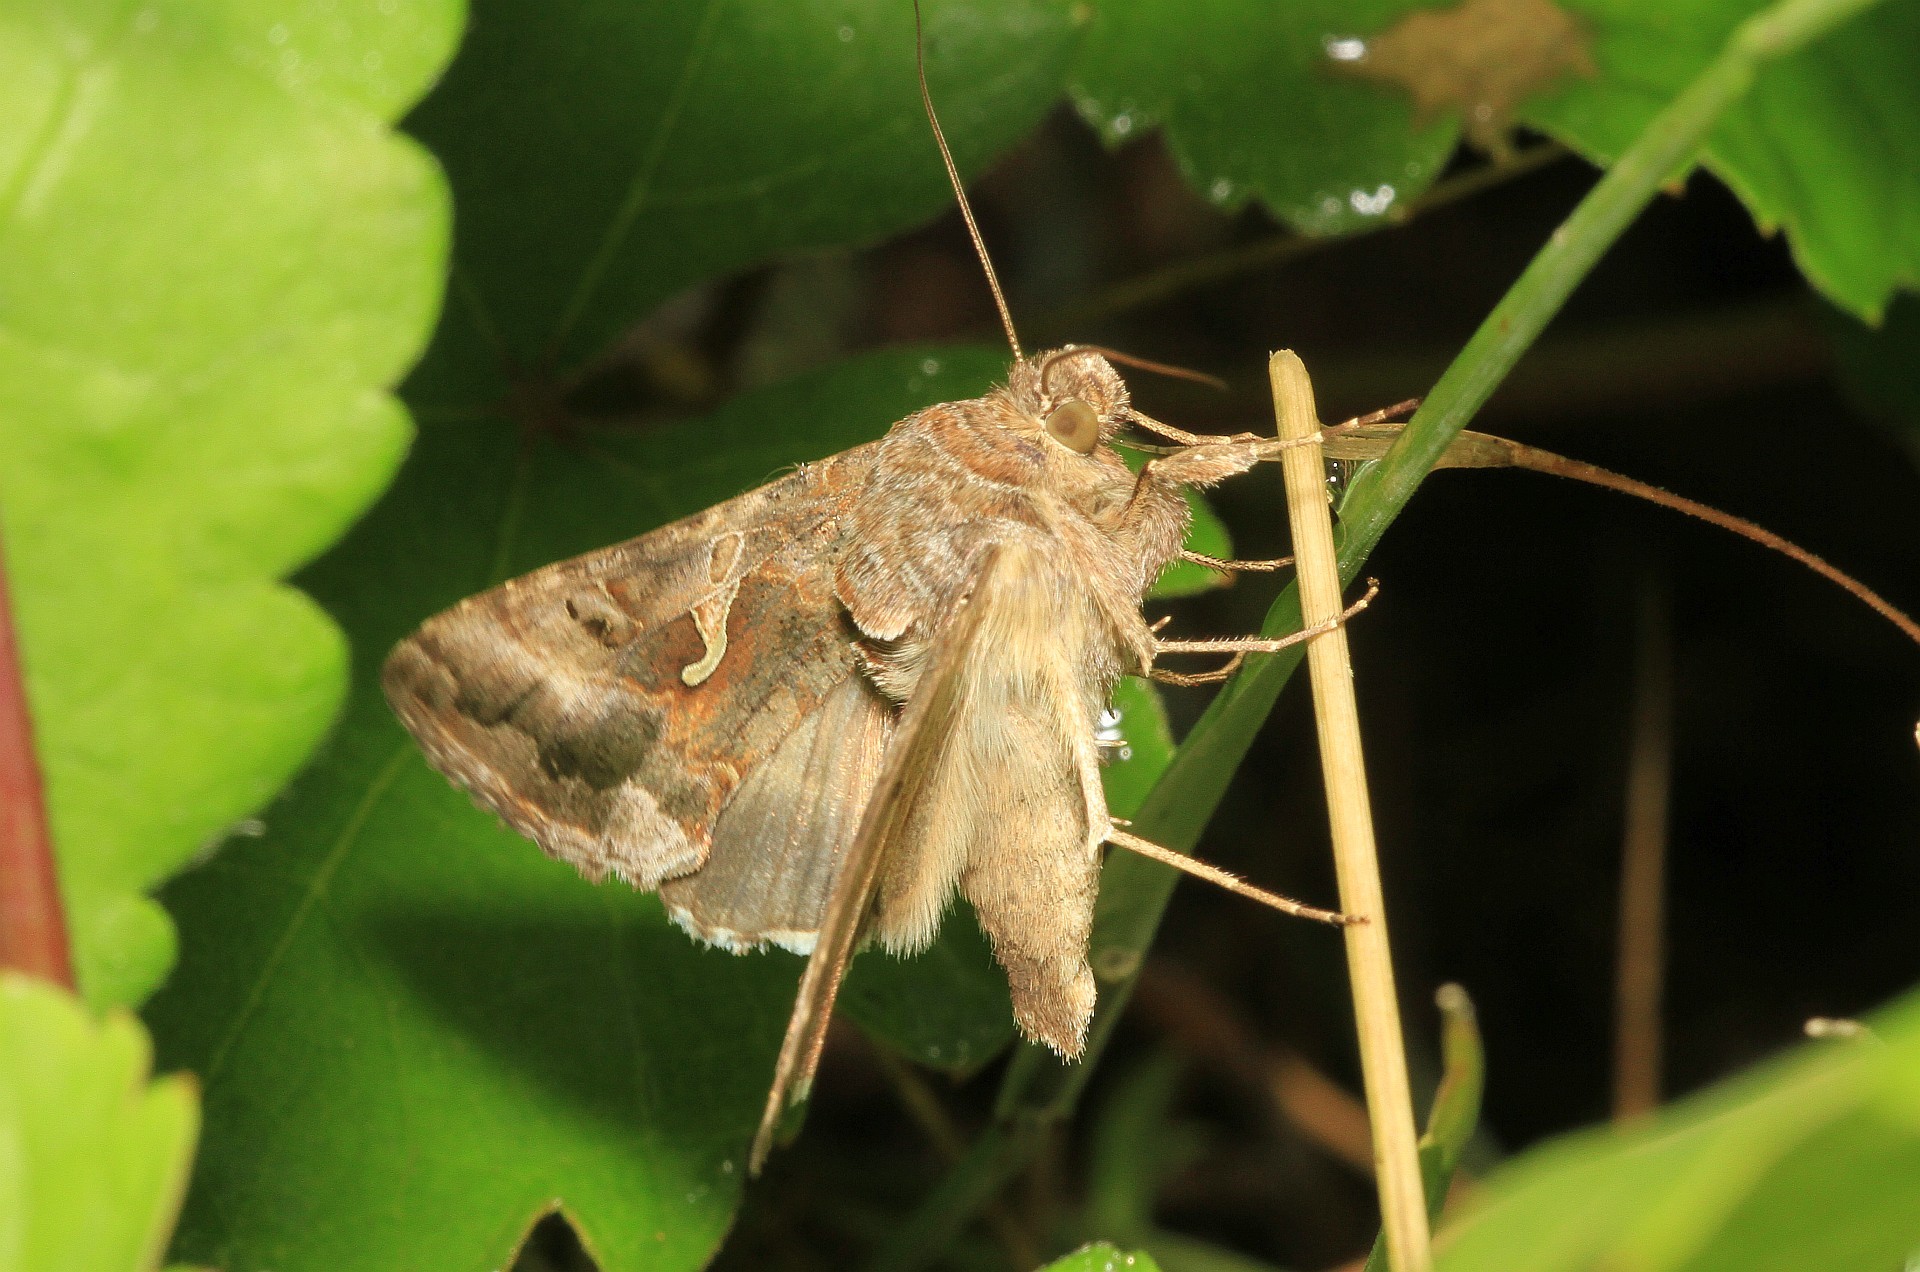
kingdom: Animalia
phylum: Arthropoda
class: Insecta
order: Lepidoptera
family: Noctuidae
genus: Autographa
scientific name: Autographa gamma
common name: Silver y
